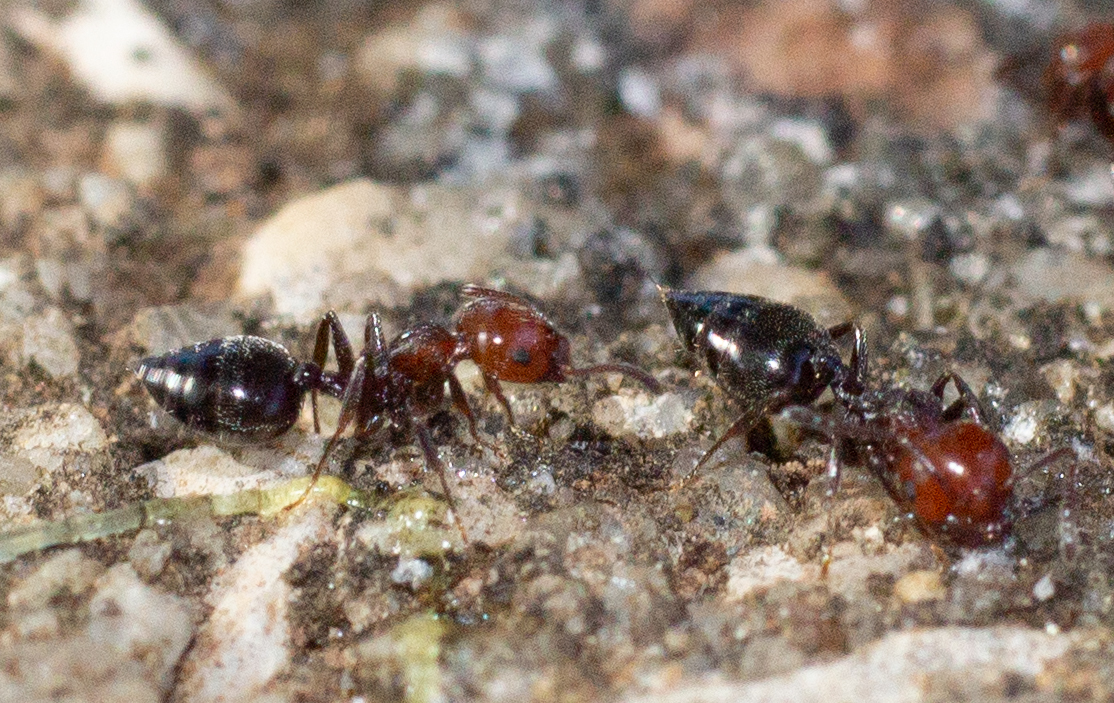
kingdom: Animalia
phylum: Arthropoda
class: Insecta
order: Hymenoptera
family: Formicidae
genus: Crematogaster
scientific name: Crematogaster scutellaris
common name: Fourmi du liège
